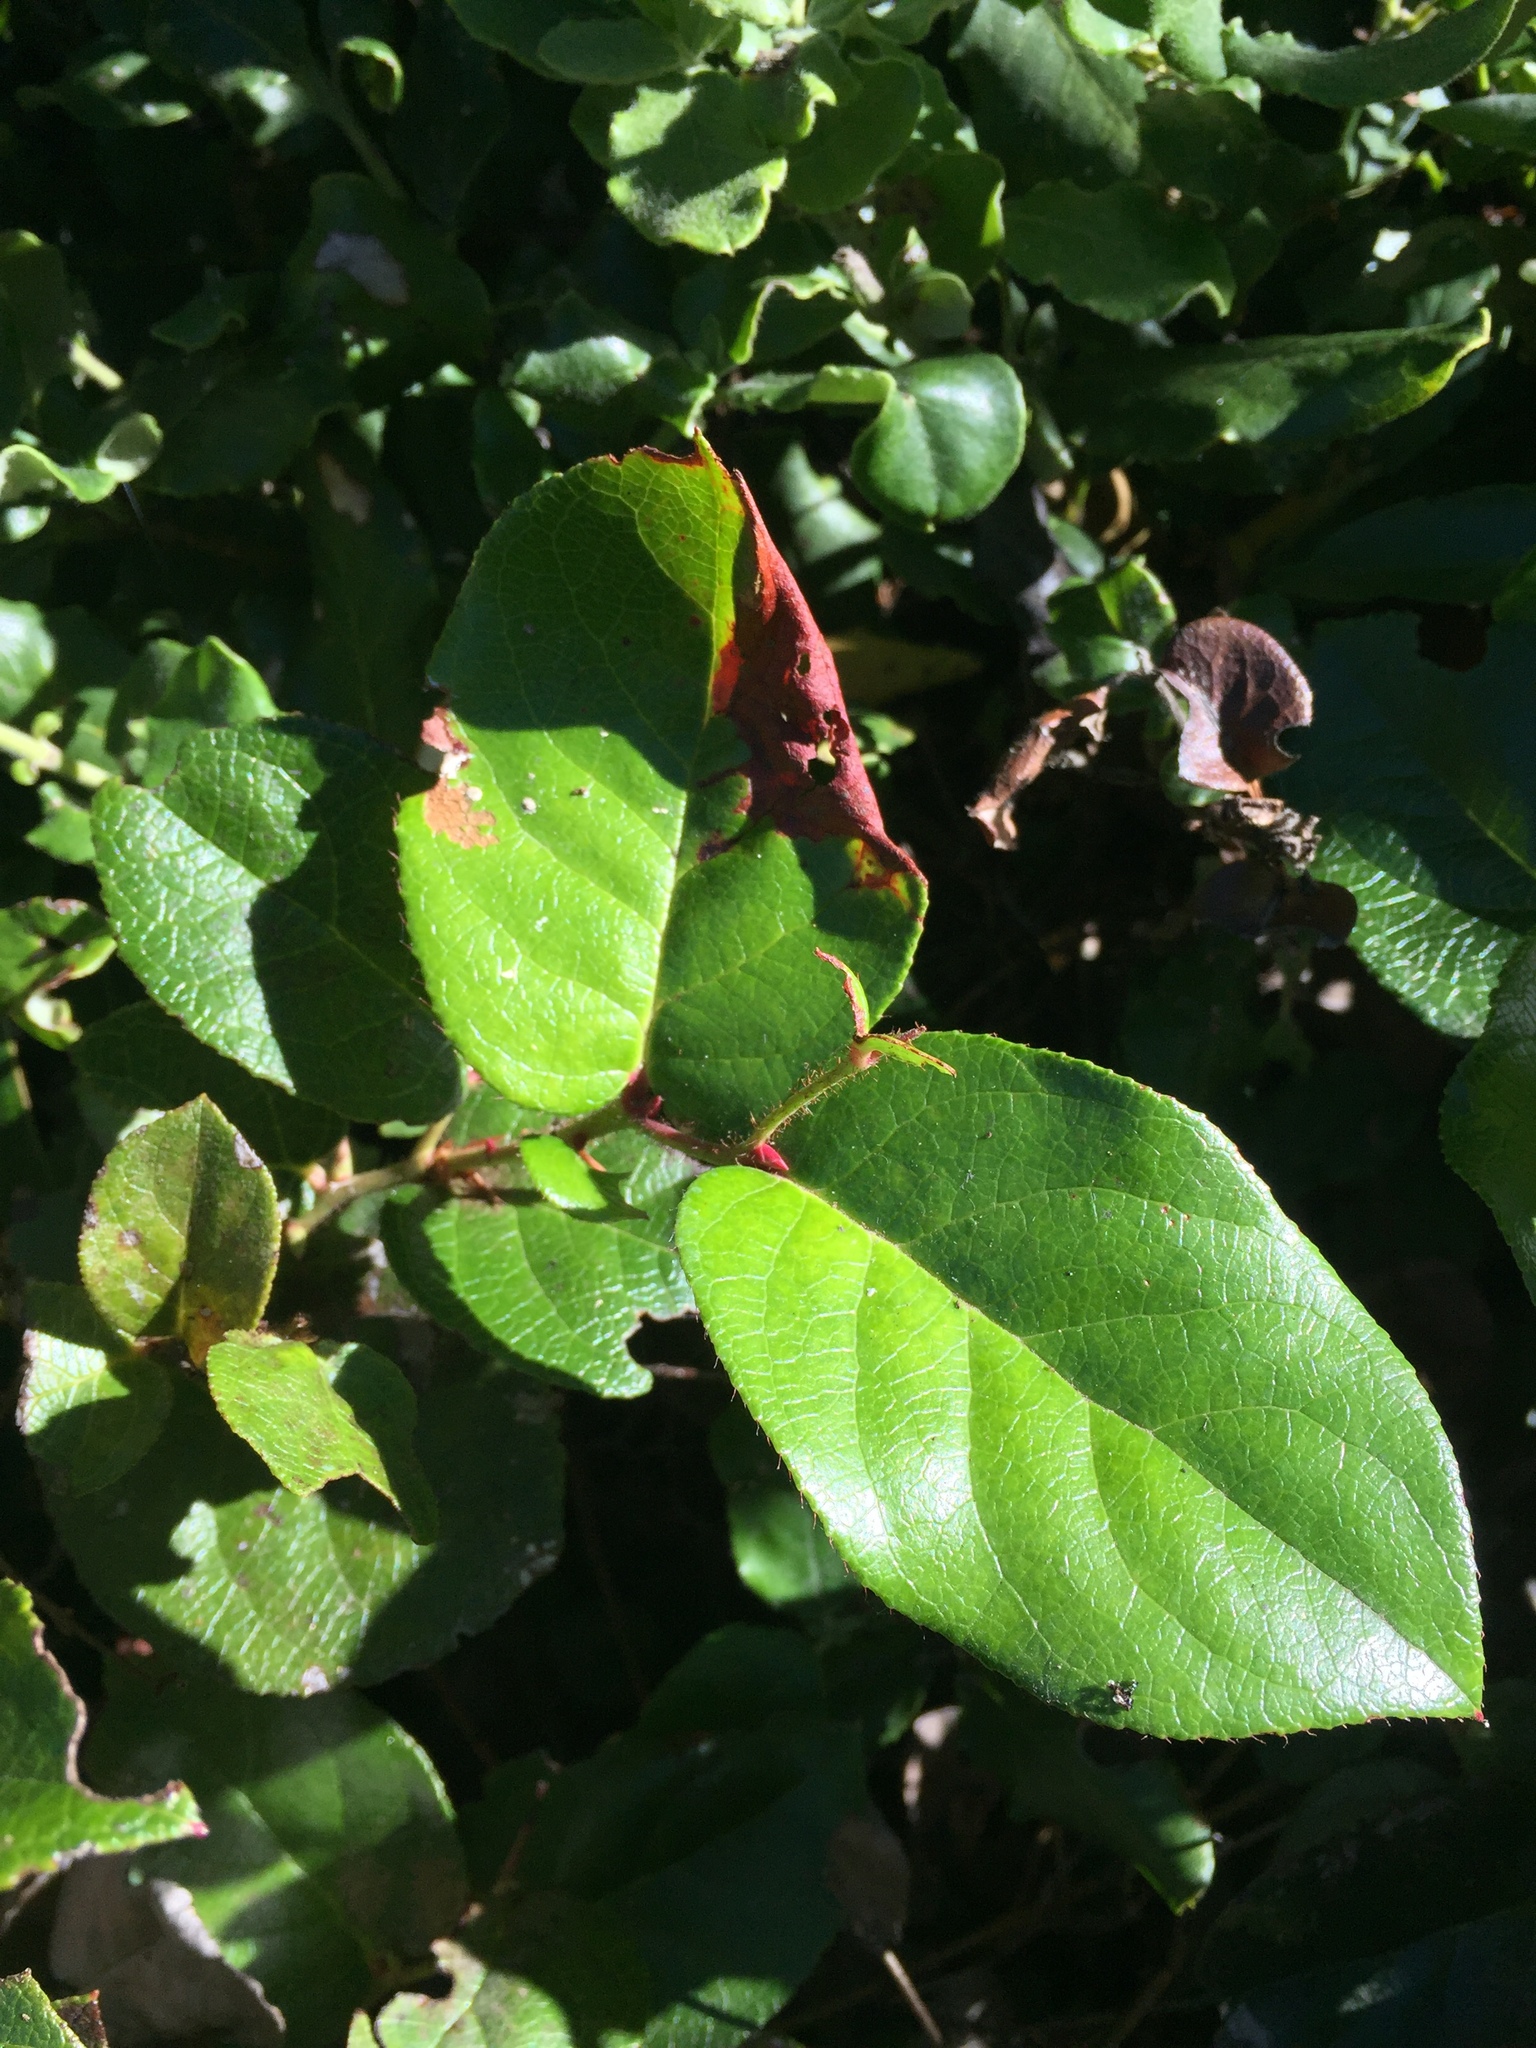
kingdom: Plantae
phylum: Tracheophyta
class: Magnoliopsida
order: Ericales
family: Ericaceae
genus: Gaultheria
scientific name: Gaultheria shallon
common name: Shallon
